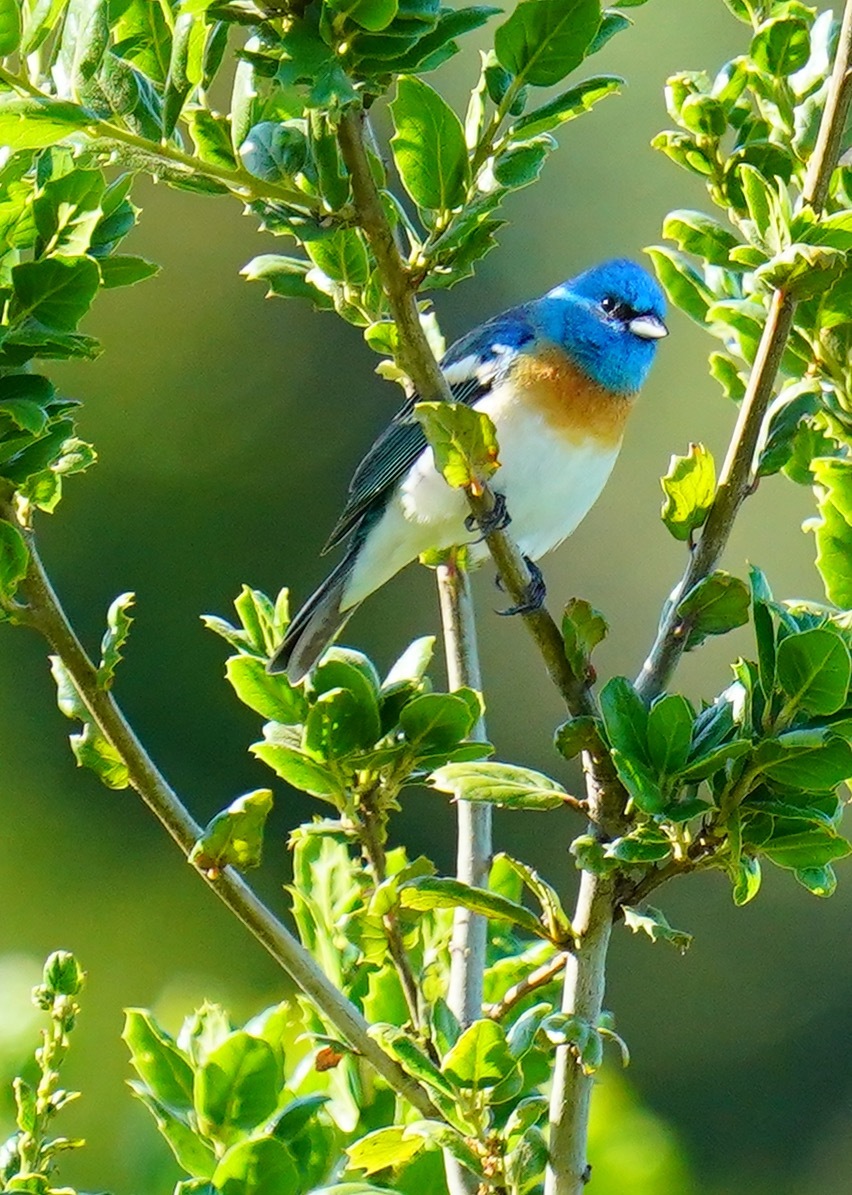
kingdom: Animalia
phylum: Chordata
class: Aves
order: Passeriformes
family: Cardinalidae
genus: Passerina
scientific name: Passerina amoena
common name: Lazuli bunting
